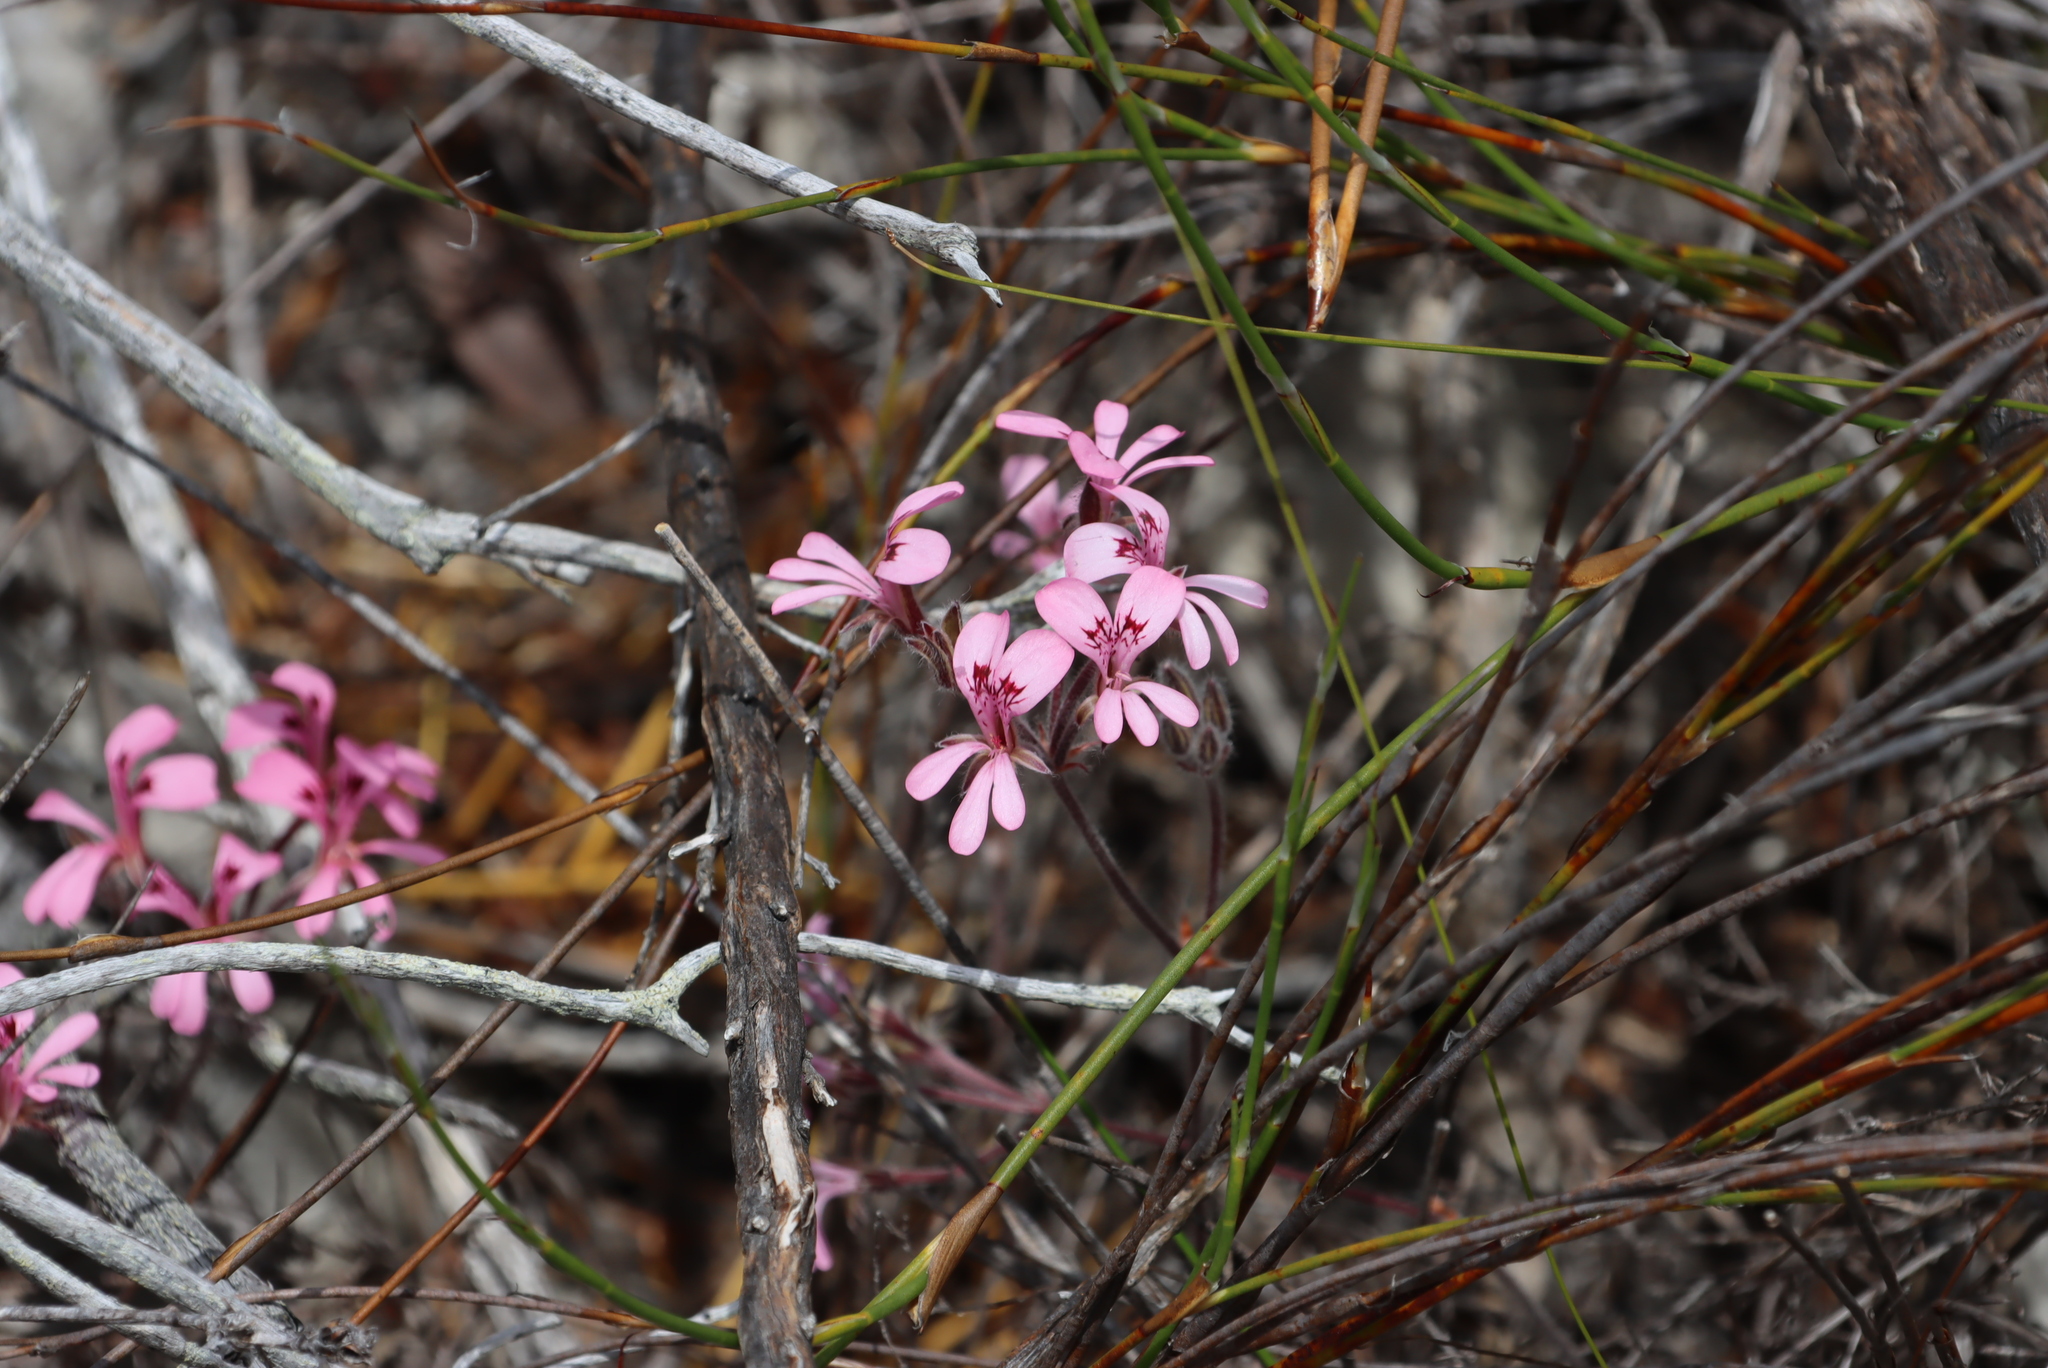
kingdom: Plantae
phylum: Tracheophyta
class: Magnoliopsida
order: Geraniales
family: Geraniaceae
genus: Pelargonium
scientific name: Pelargonium pinnatum
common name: Pinnated pelargonium
